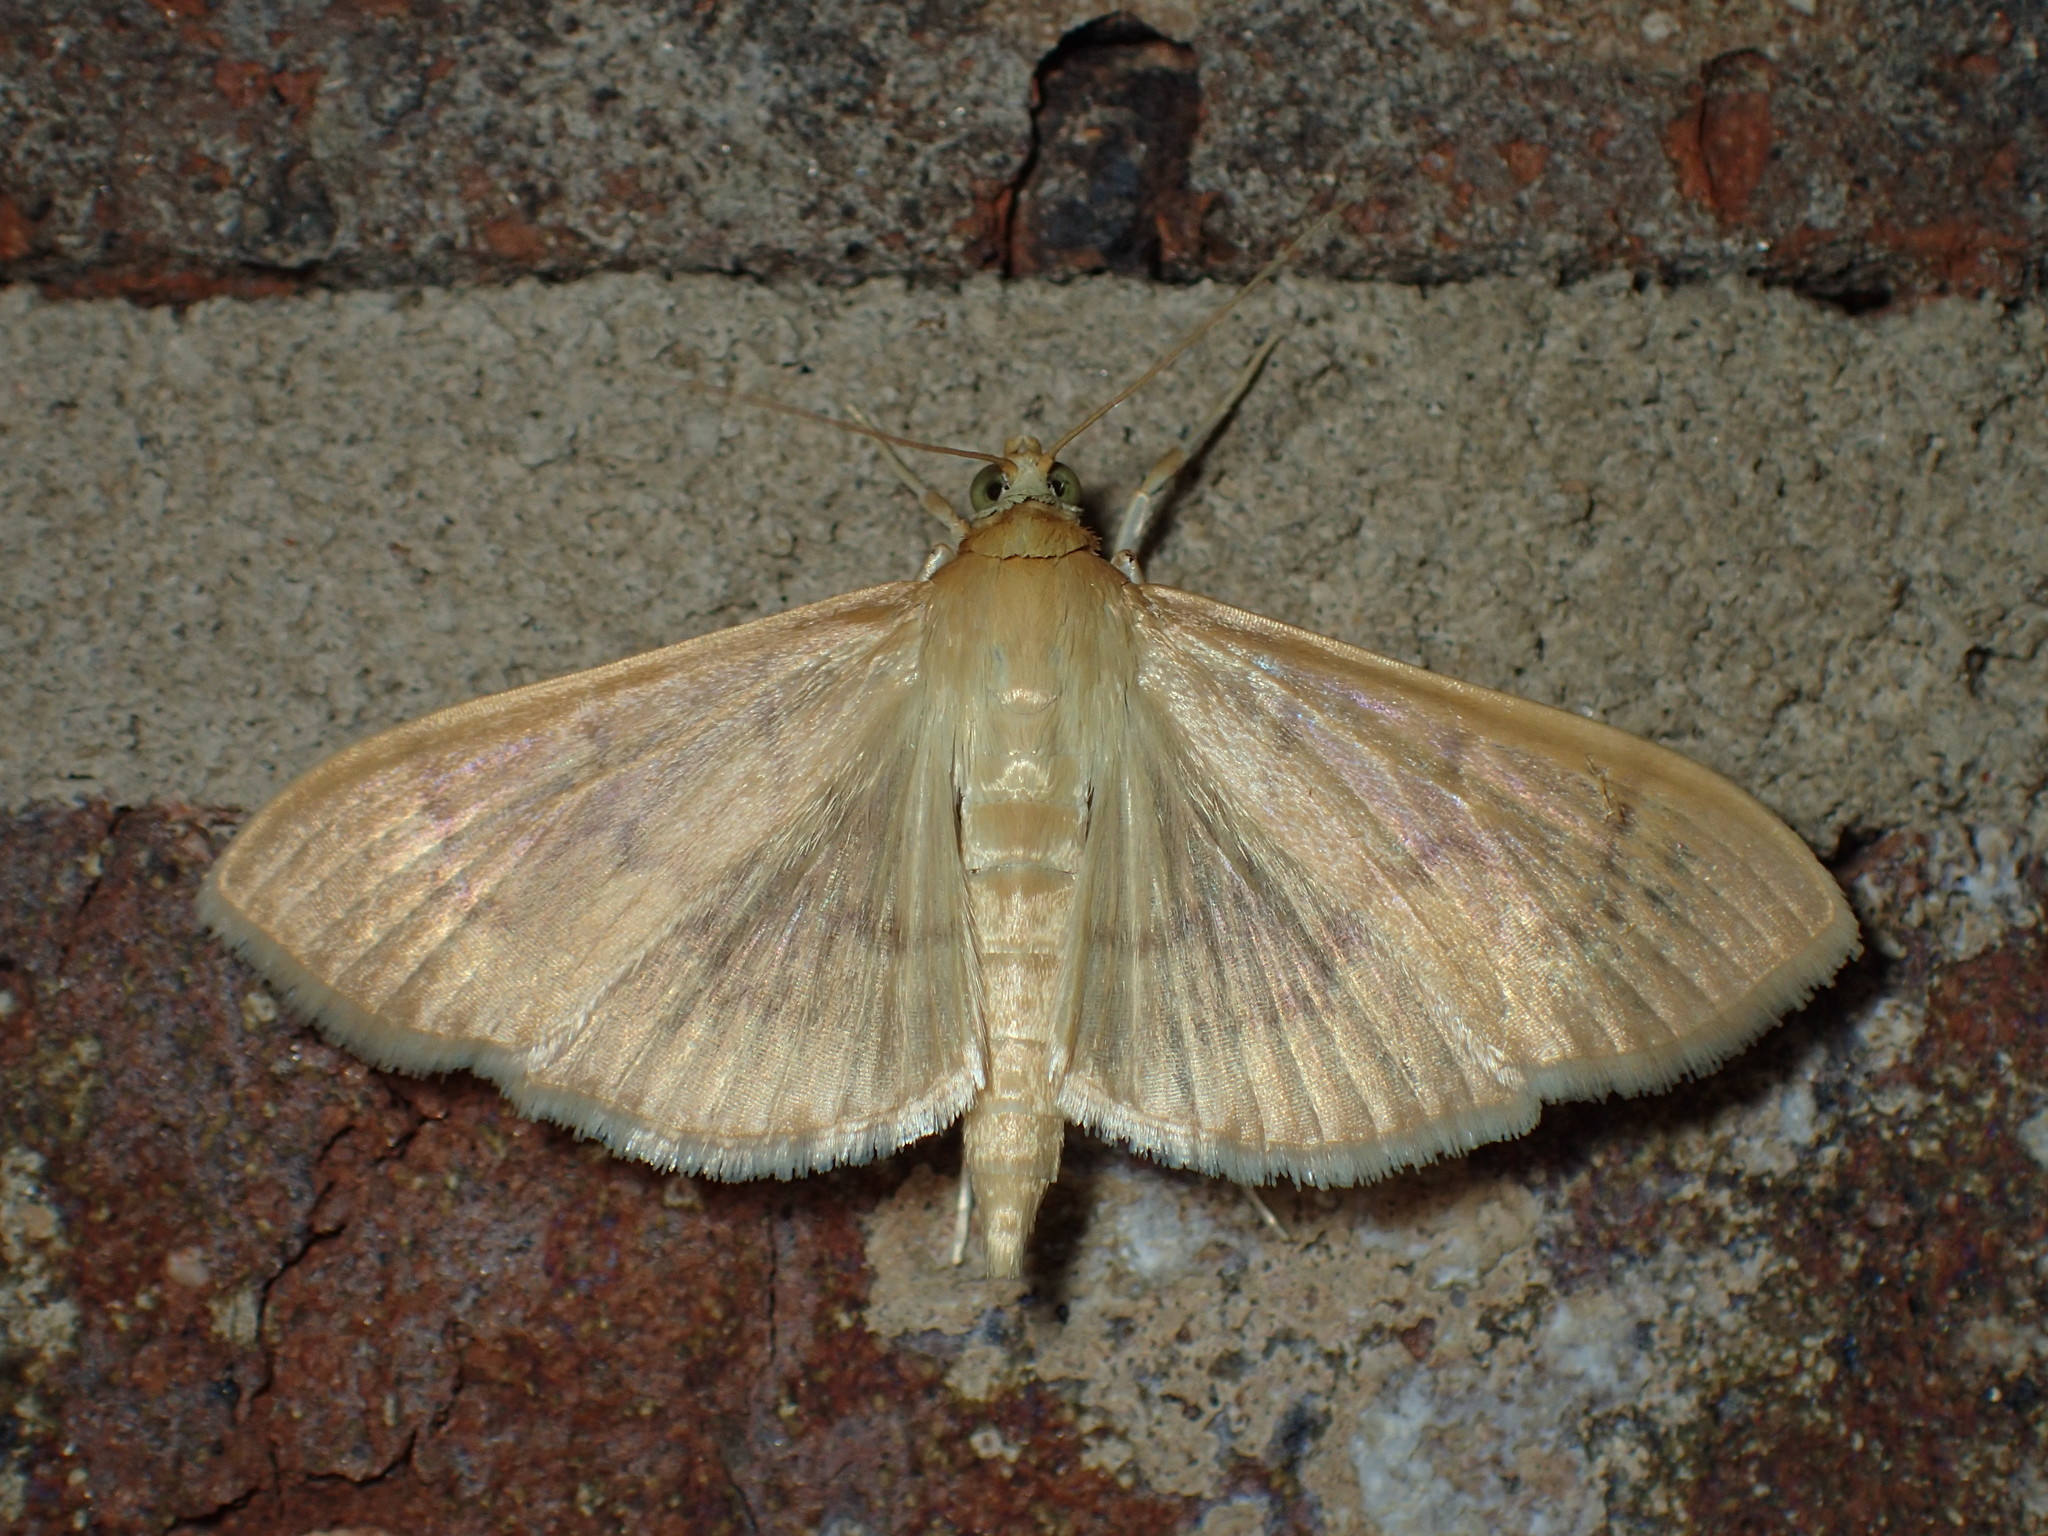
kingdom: Animalia
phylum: Arthropoda
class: Insecta
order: Lepidoptera
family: Crambidae
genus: Pleuroptya
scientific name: Pleuroptya silicalis
